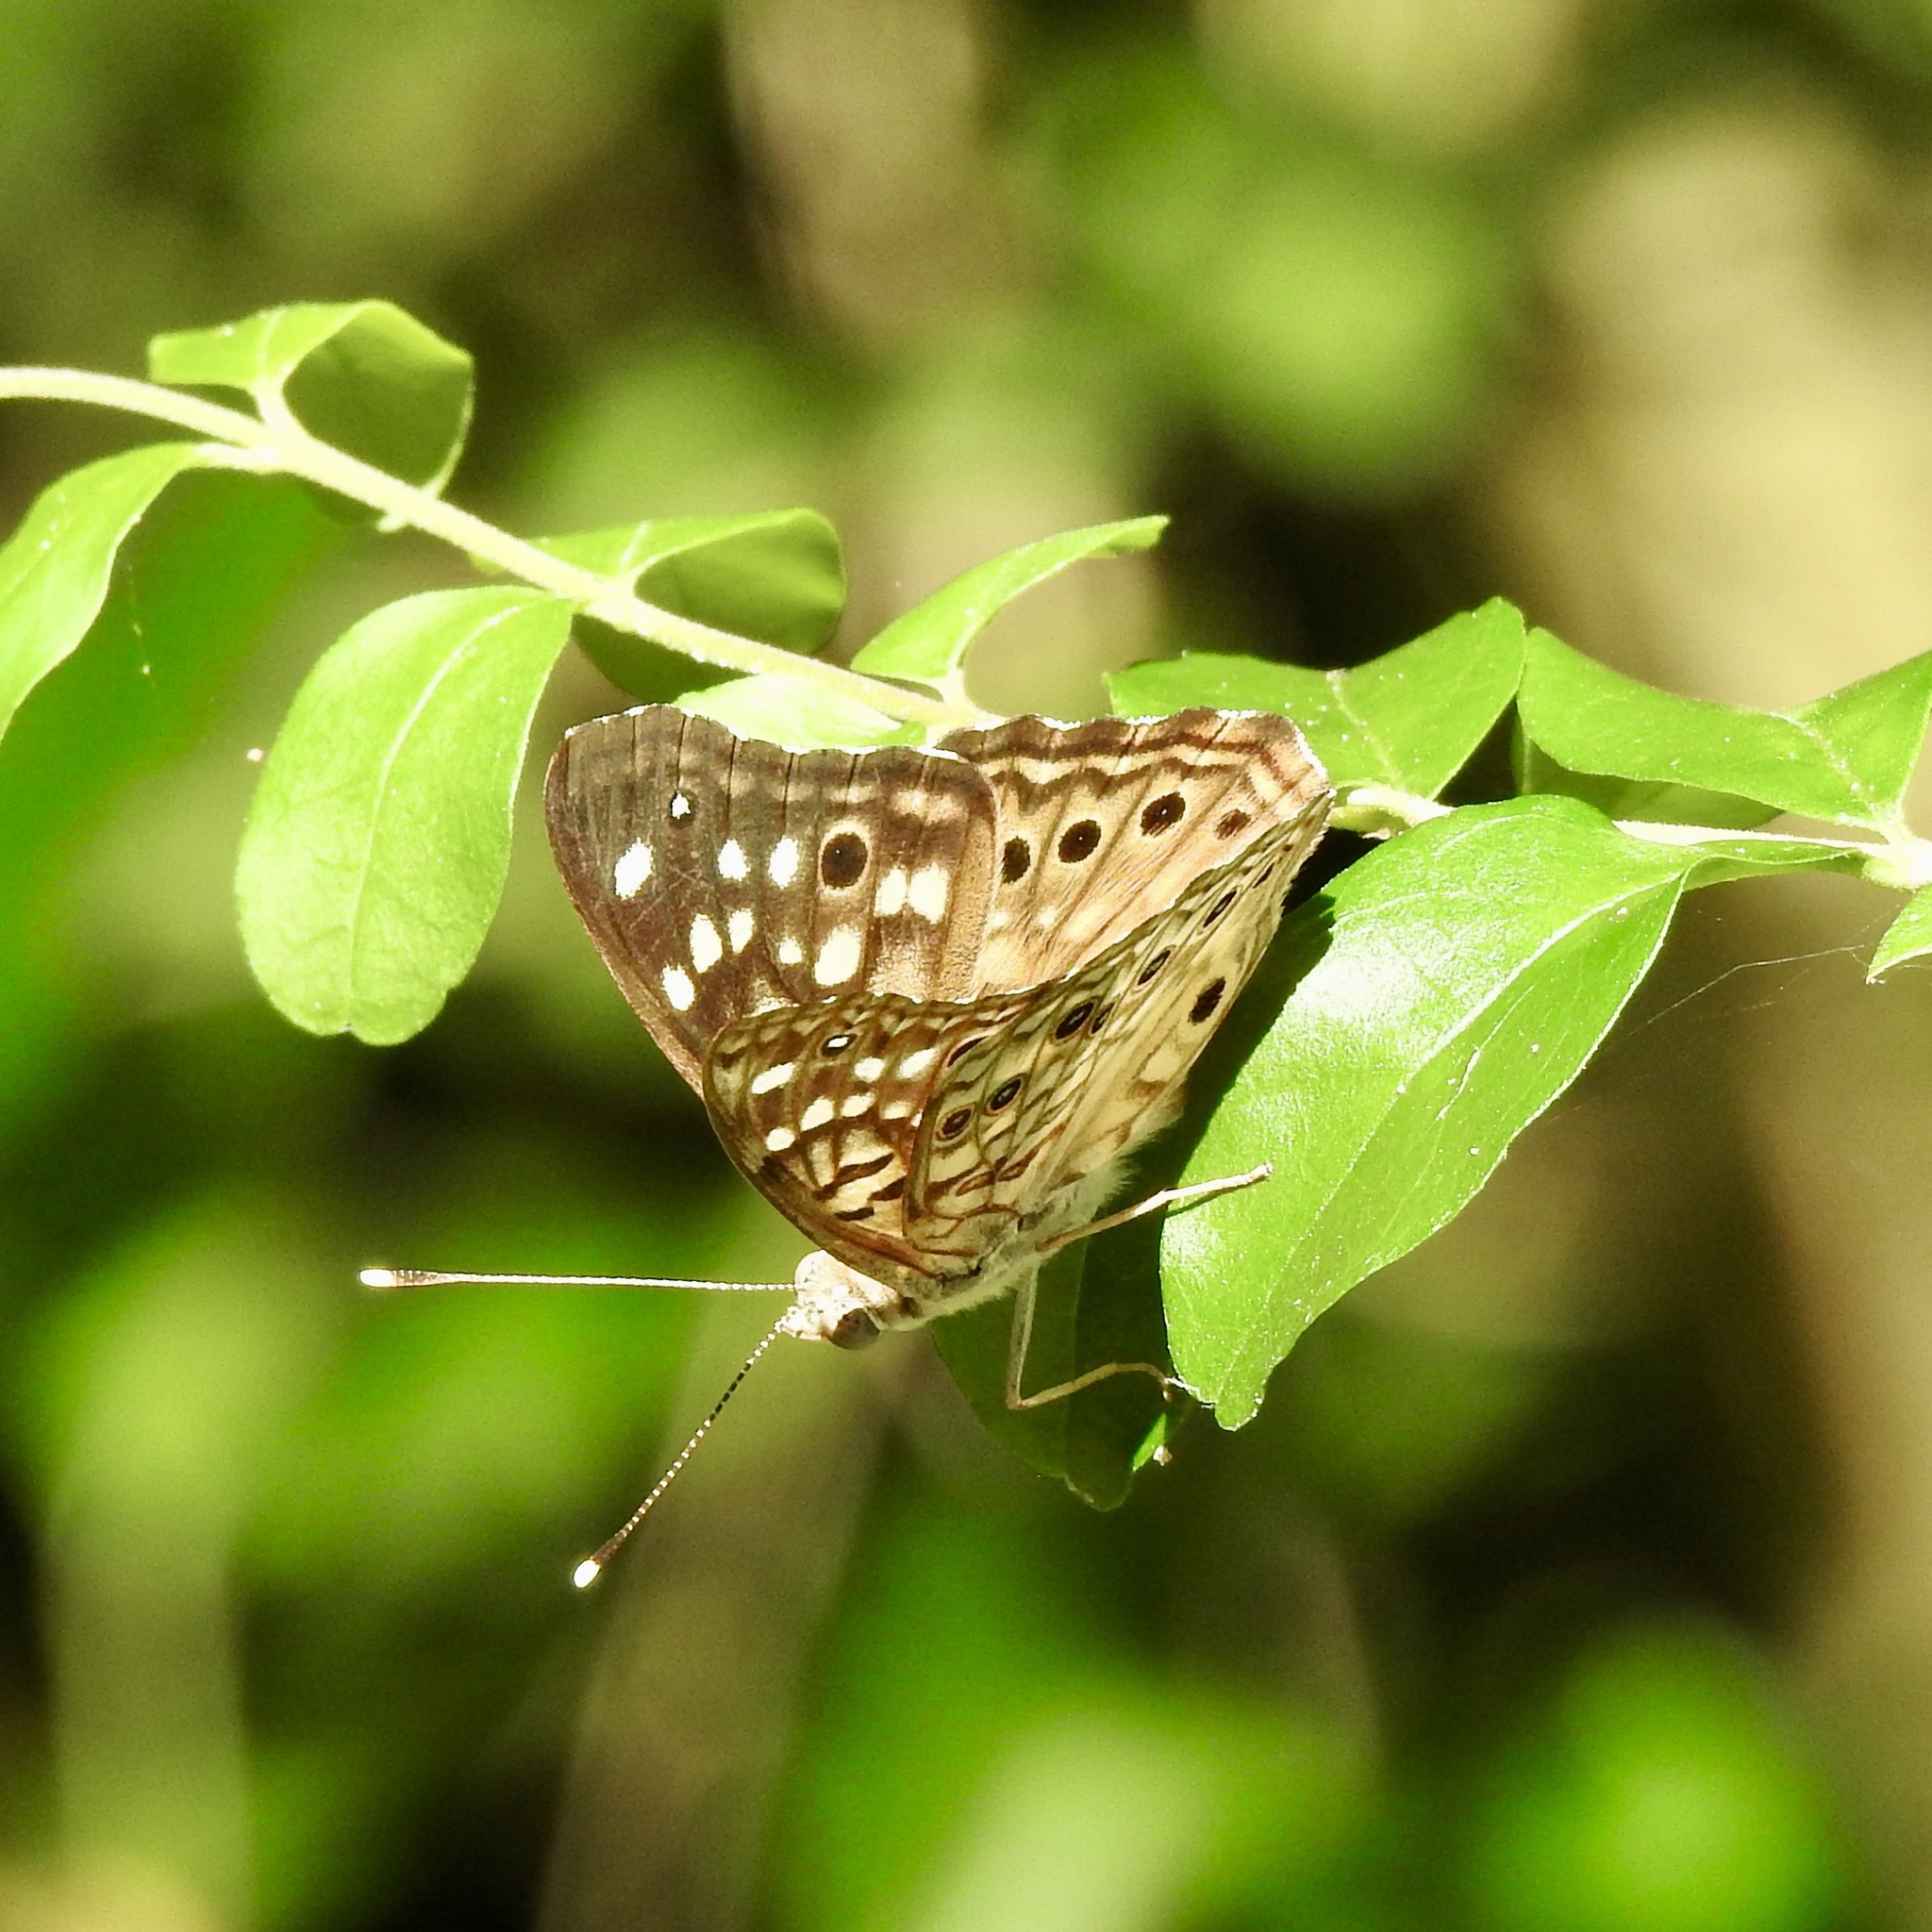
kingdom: Animalia
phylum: Arthropoda
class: Insecta
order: Lepidoptera
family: Nymphalidae
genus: Asterocampa
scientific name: Asterocampa celtis
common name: Hackberry emperor
